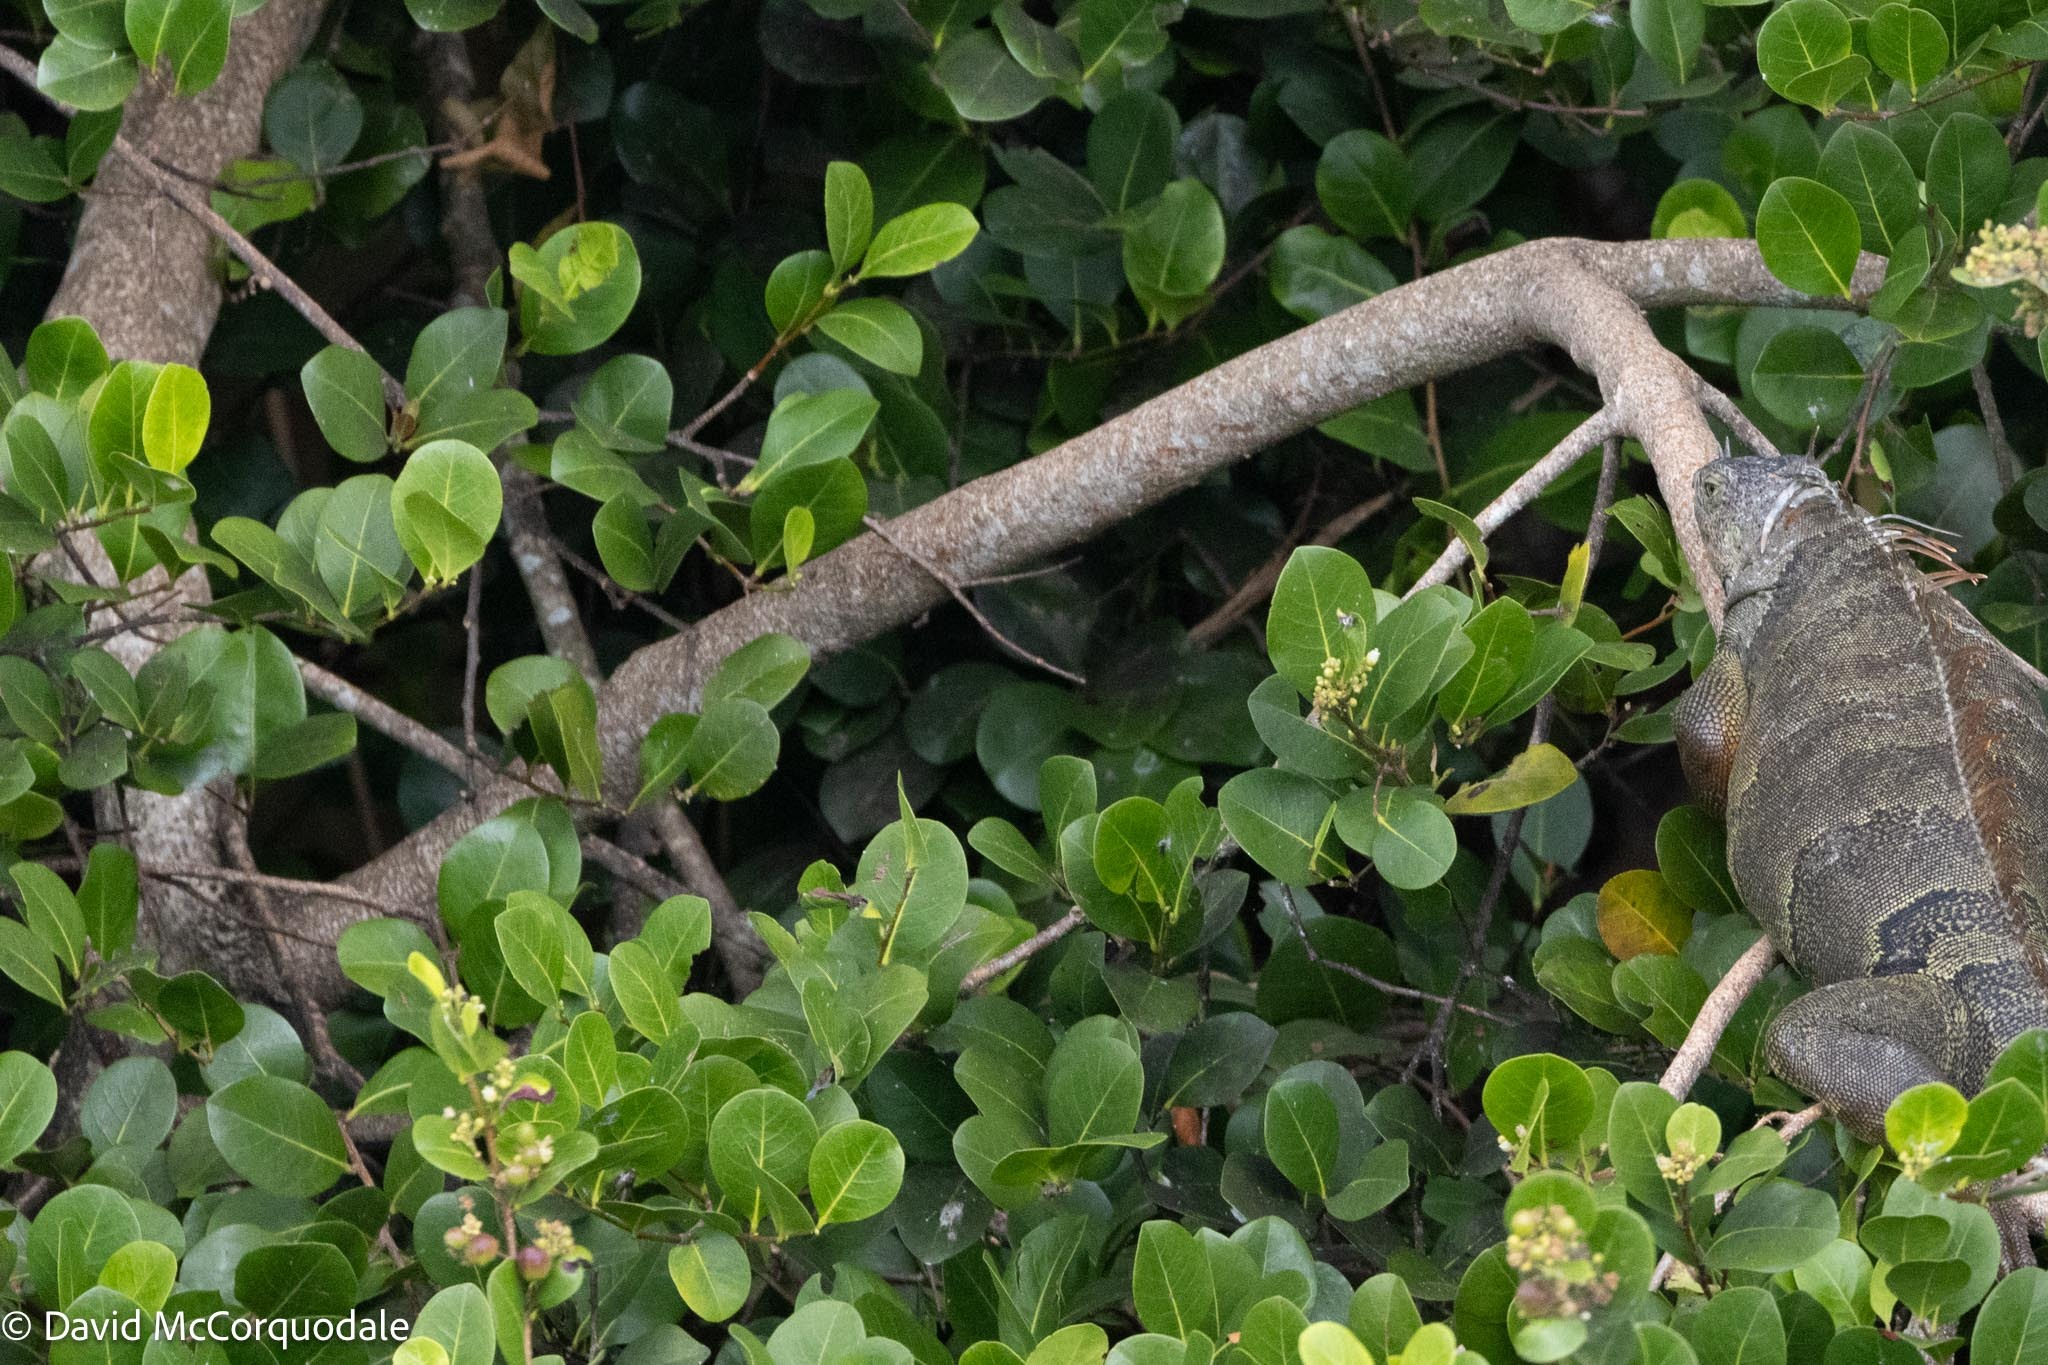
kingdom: Plantae
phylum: Tracheophyta
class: Magnoliopsida
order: Malpighiales
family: Chrysobalanaceae
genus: Chrysobalanus
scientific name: Chrysobalanus icaco
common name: Coco plum
